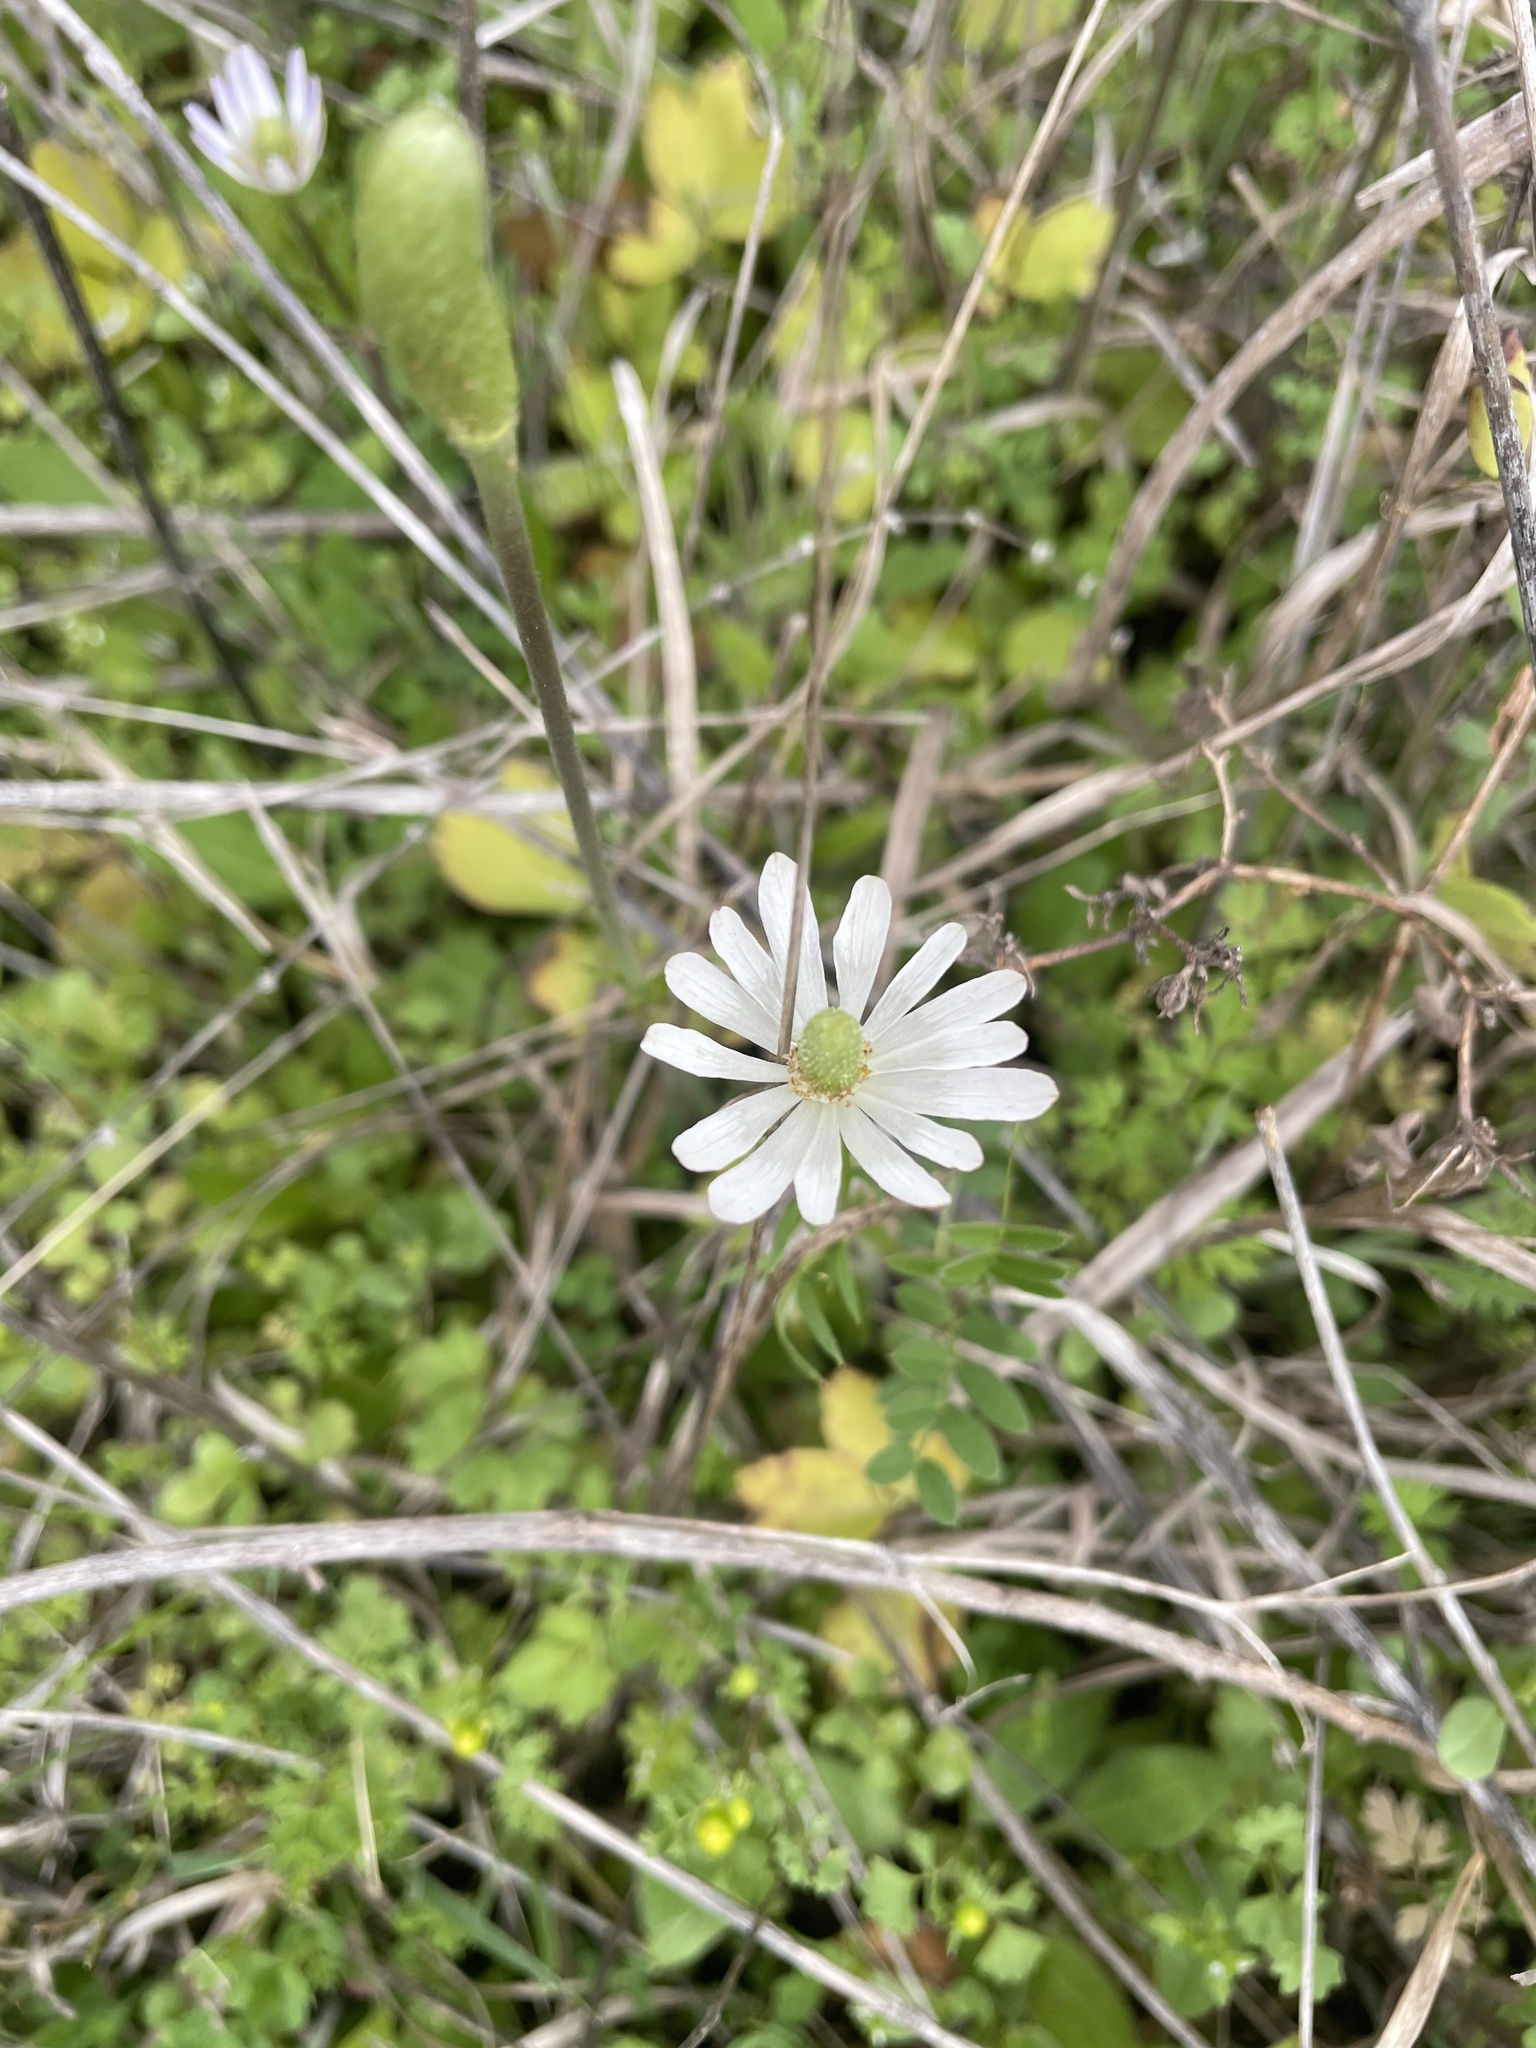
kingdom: Plantae
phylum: Tracheophyta
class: Magnoliopsida
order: Ranunculales
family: Ranunculaceae
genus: Anemone
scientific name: Anemone berlandieri
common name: Ten-petal anemone
